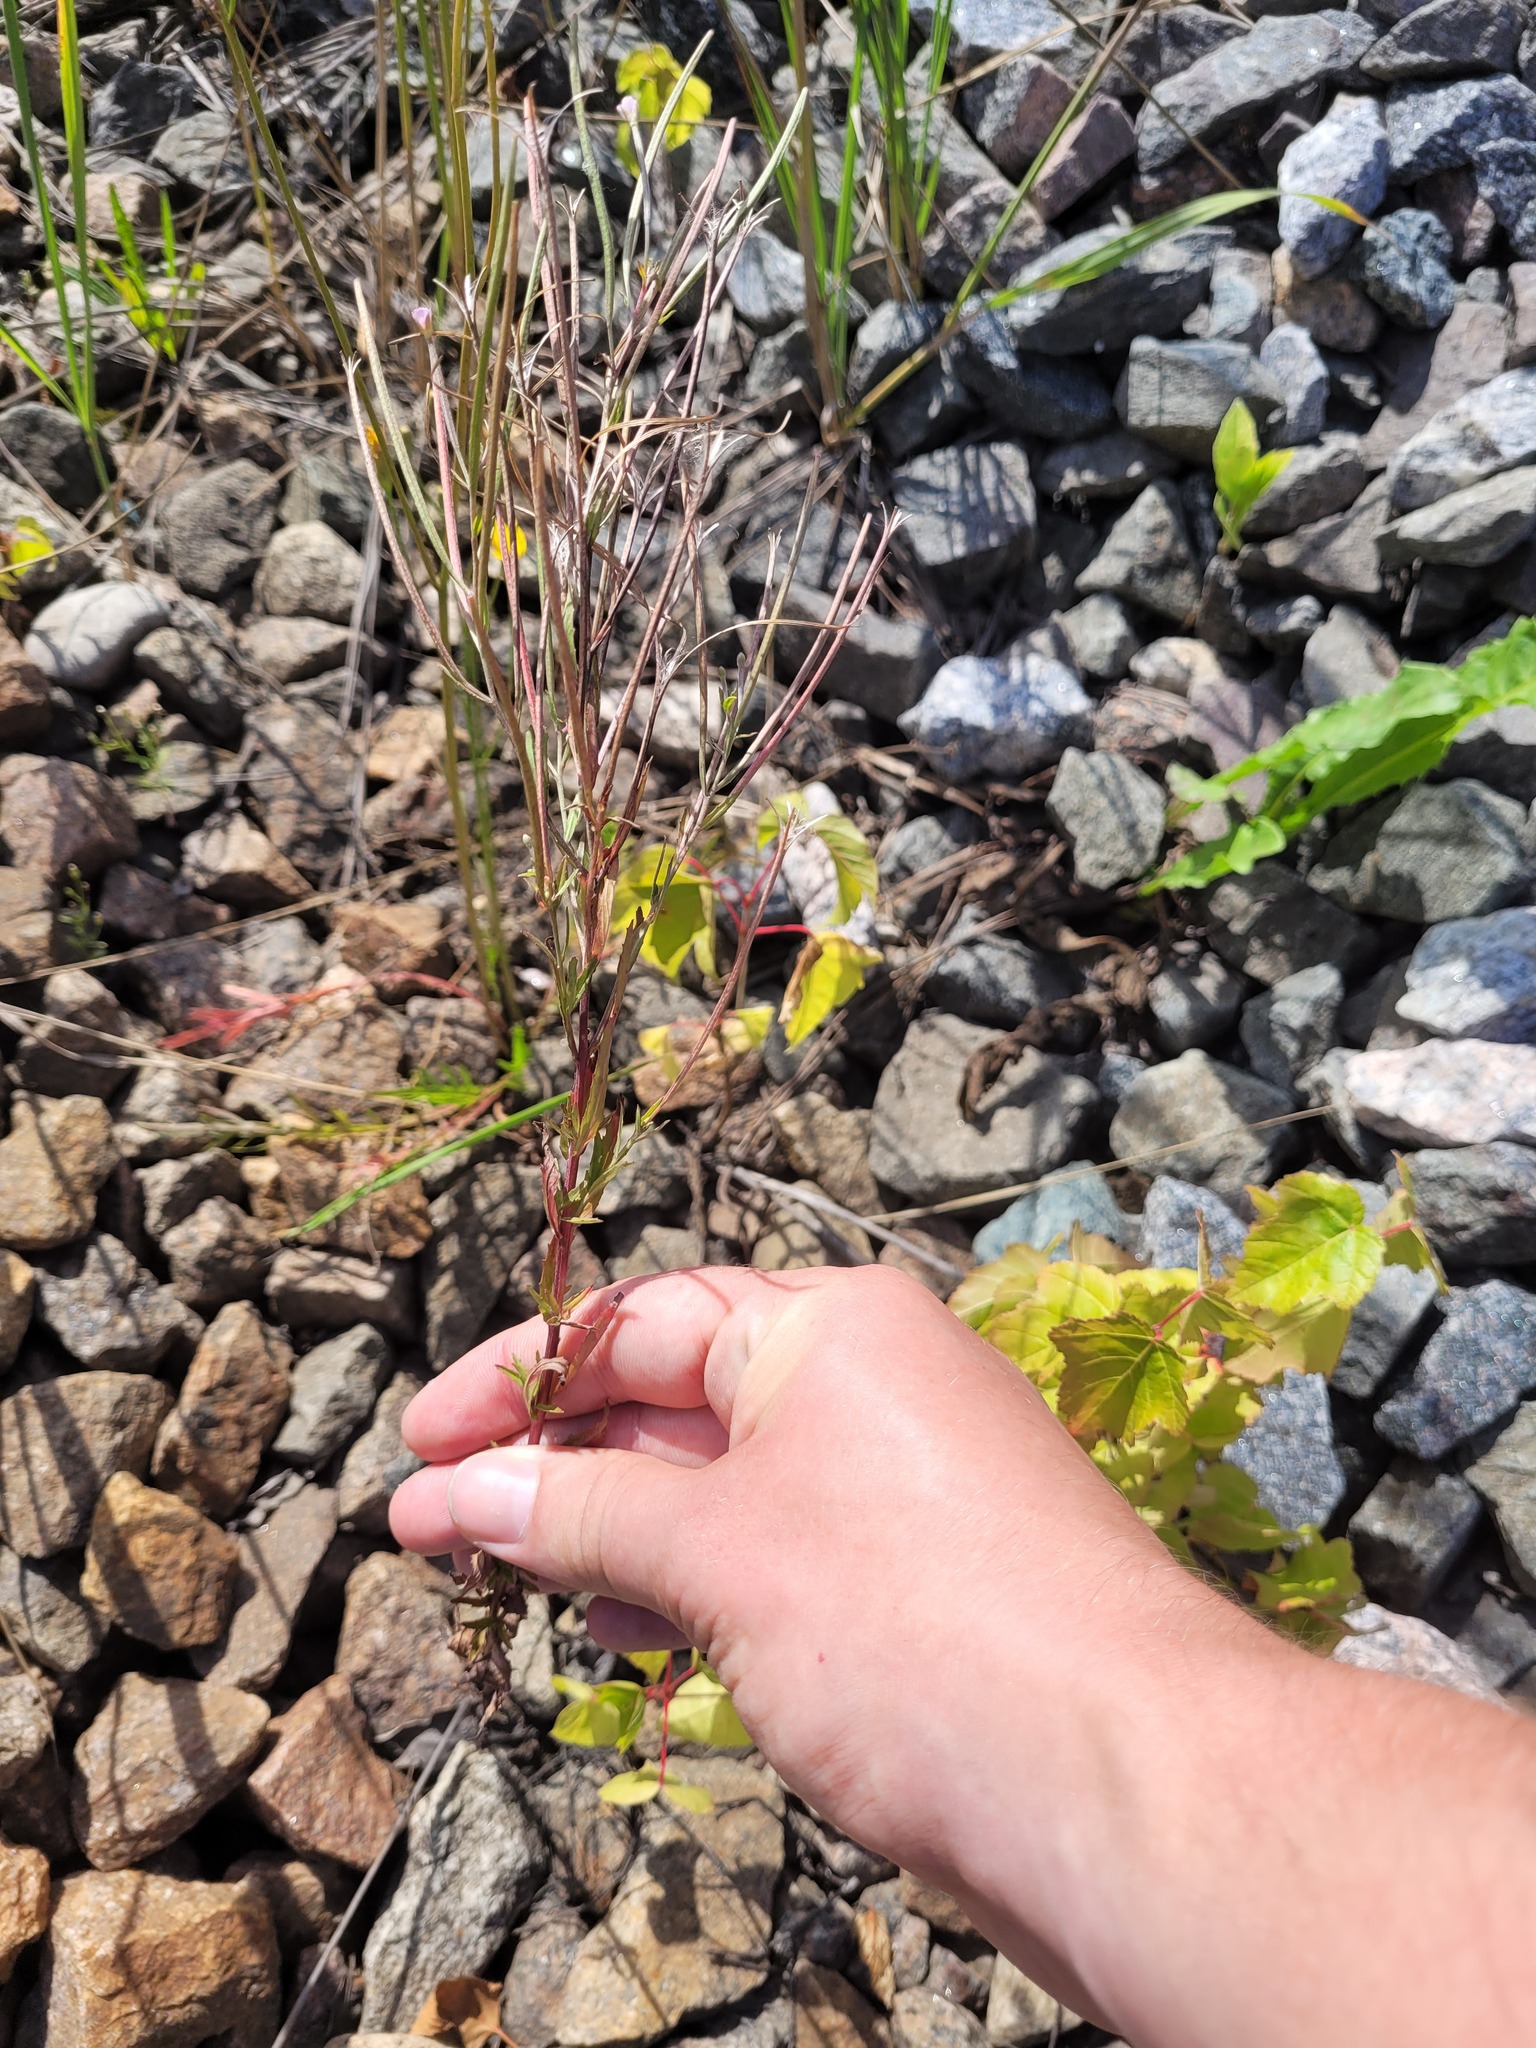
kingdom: Plantae
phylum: Tracheophyta
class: Magnoliopsida
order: Myrtales
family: Onagraceae
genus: Epilobium
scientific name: Epilobium tetragonum
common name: Square-stemmed willowherb
